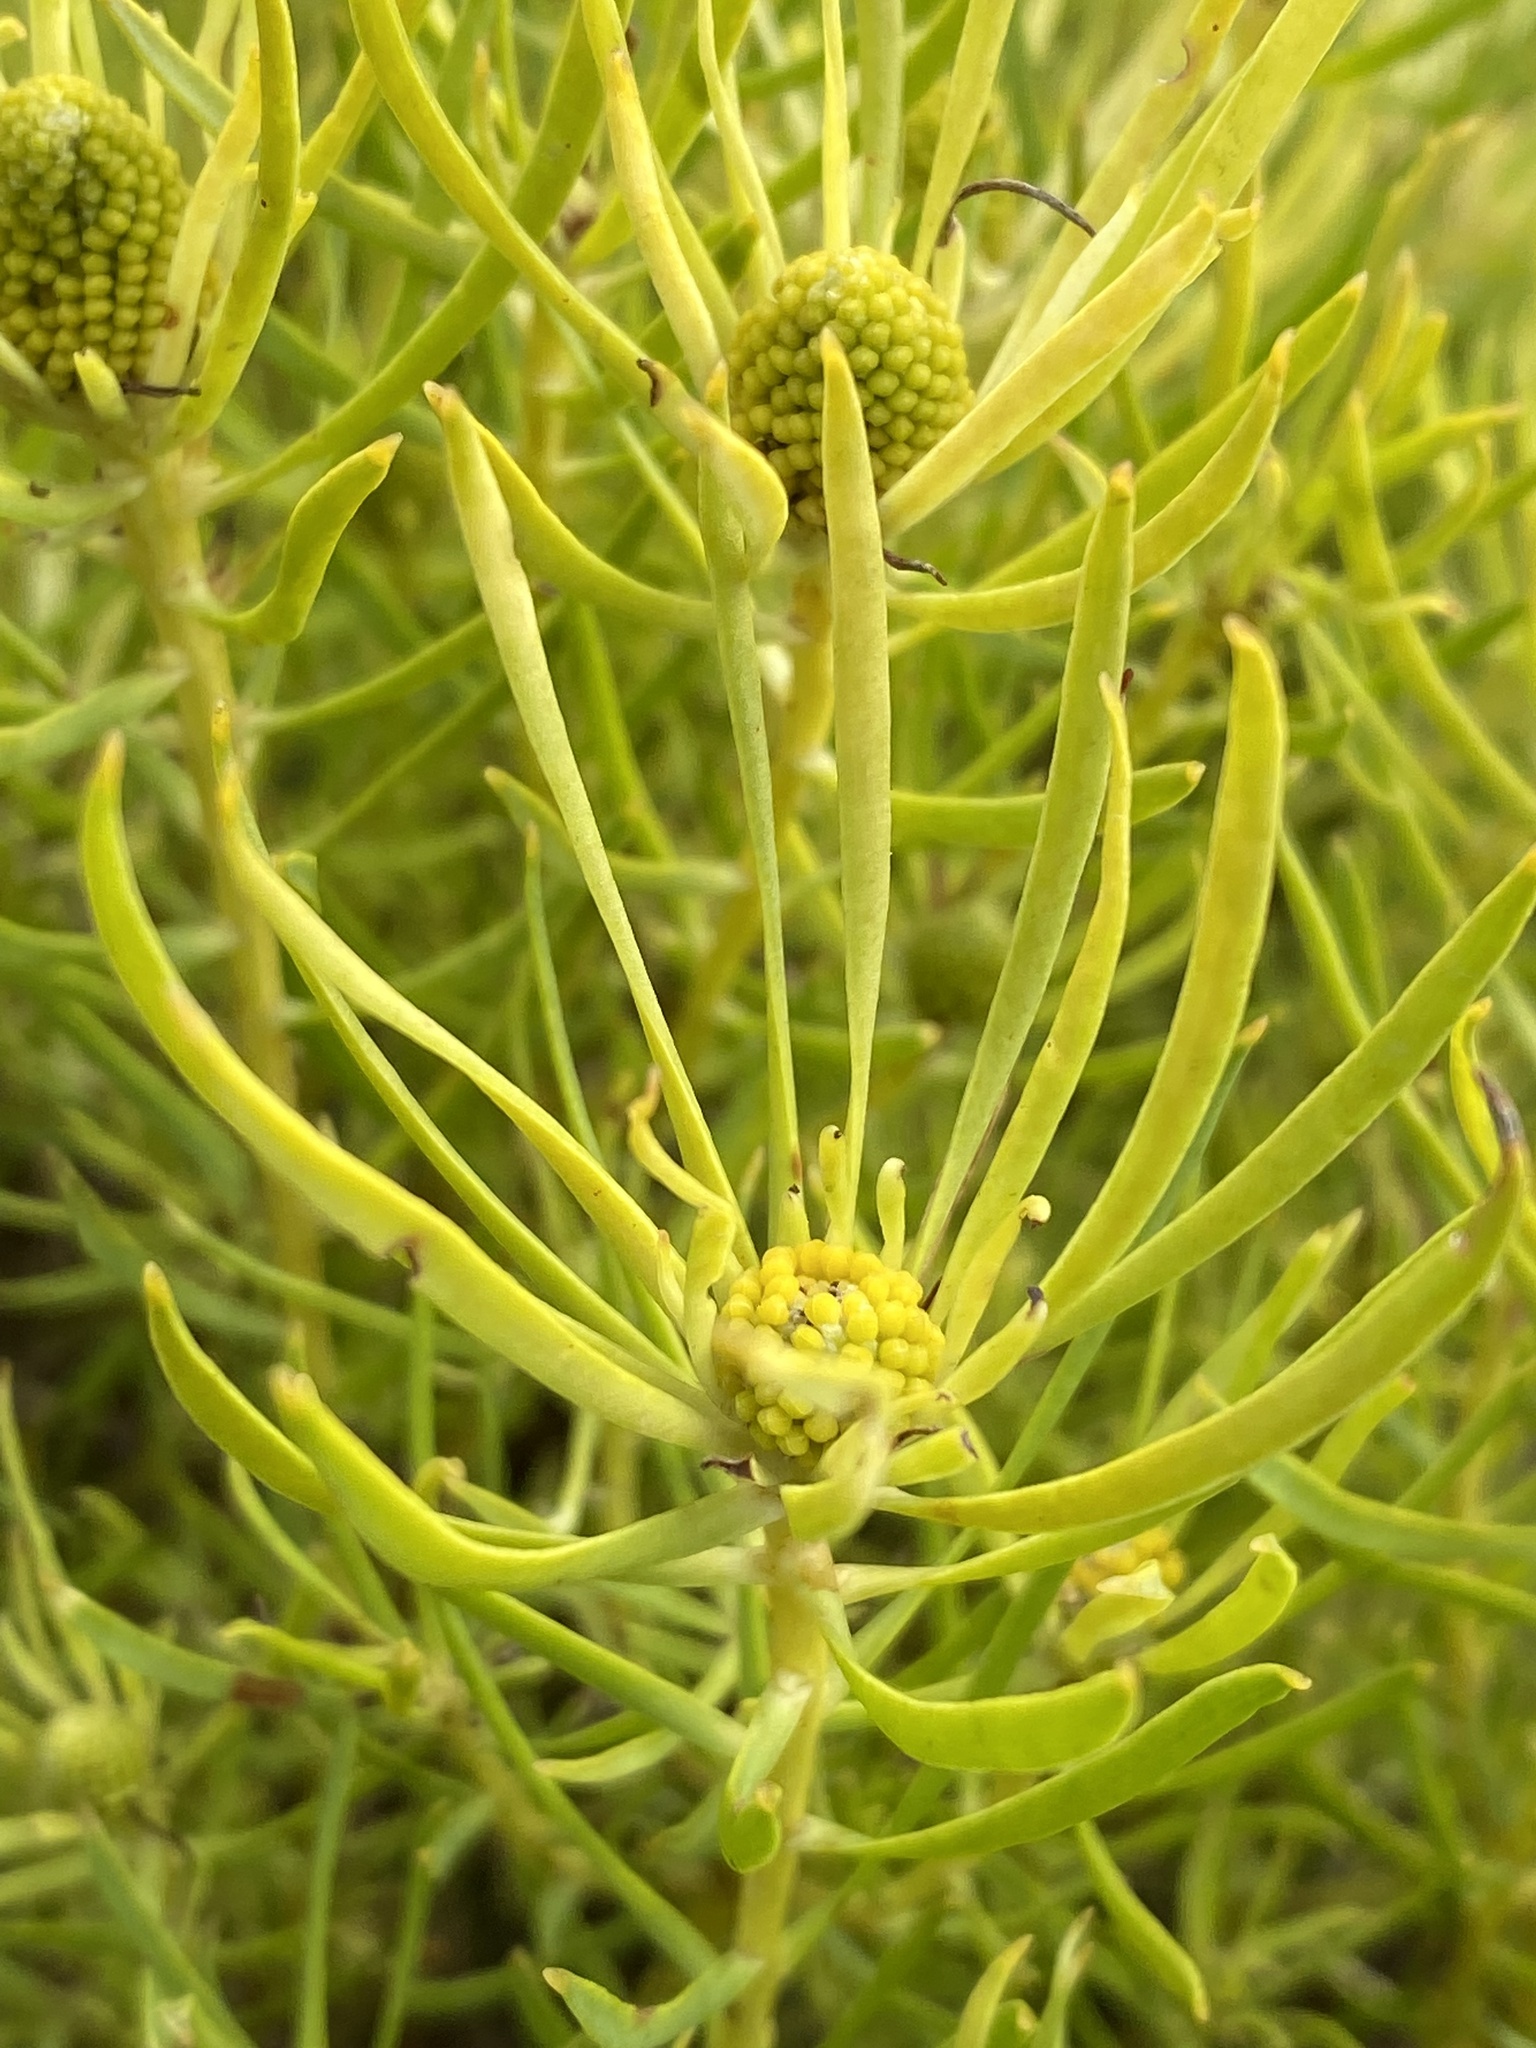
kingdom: Plantae
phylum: Tracheophyta
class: Magnoliopsida
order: Proteales
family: Proteaceae
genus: Leucadendron
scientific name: Leucadendron salignum
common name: Common sunshine conebush
